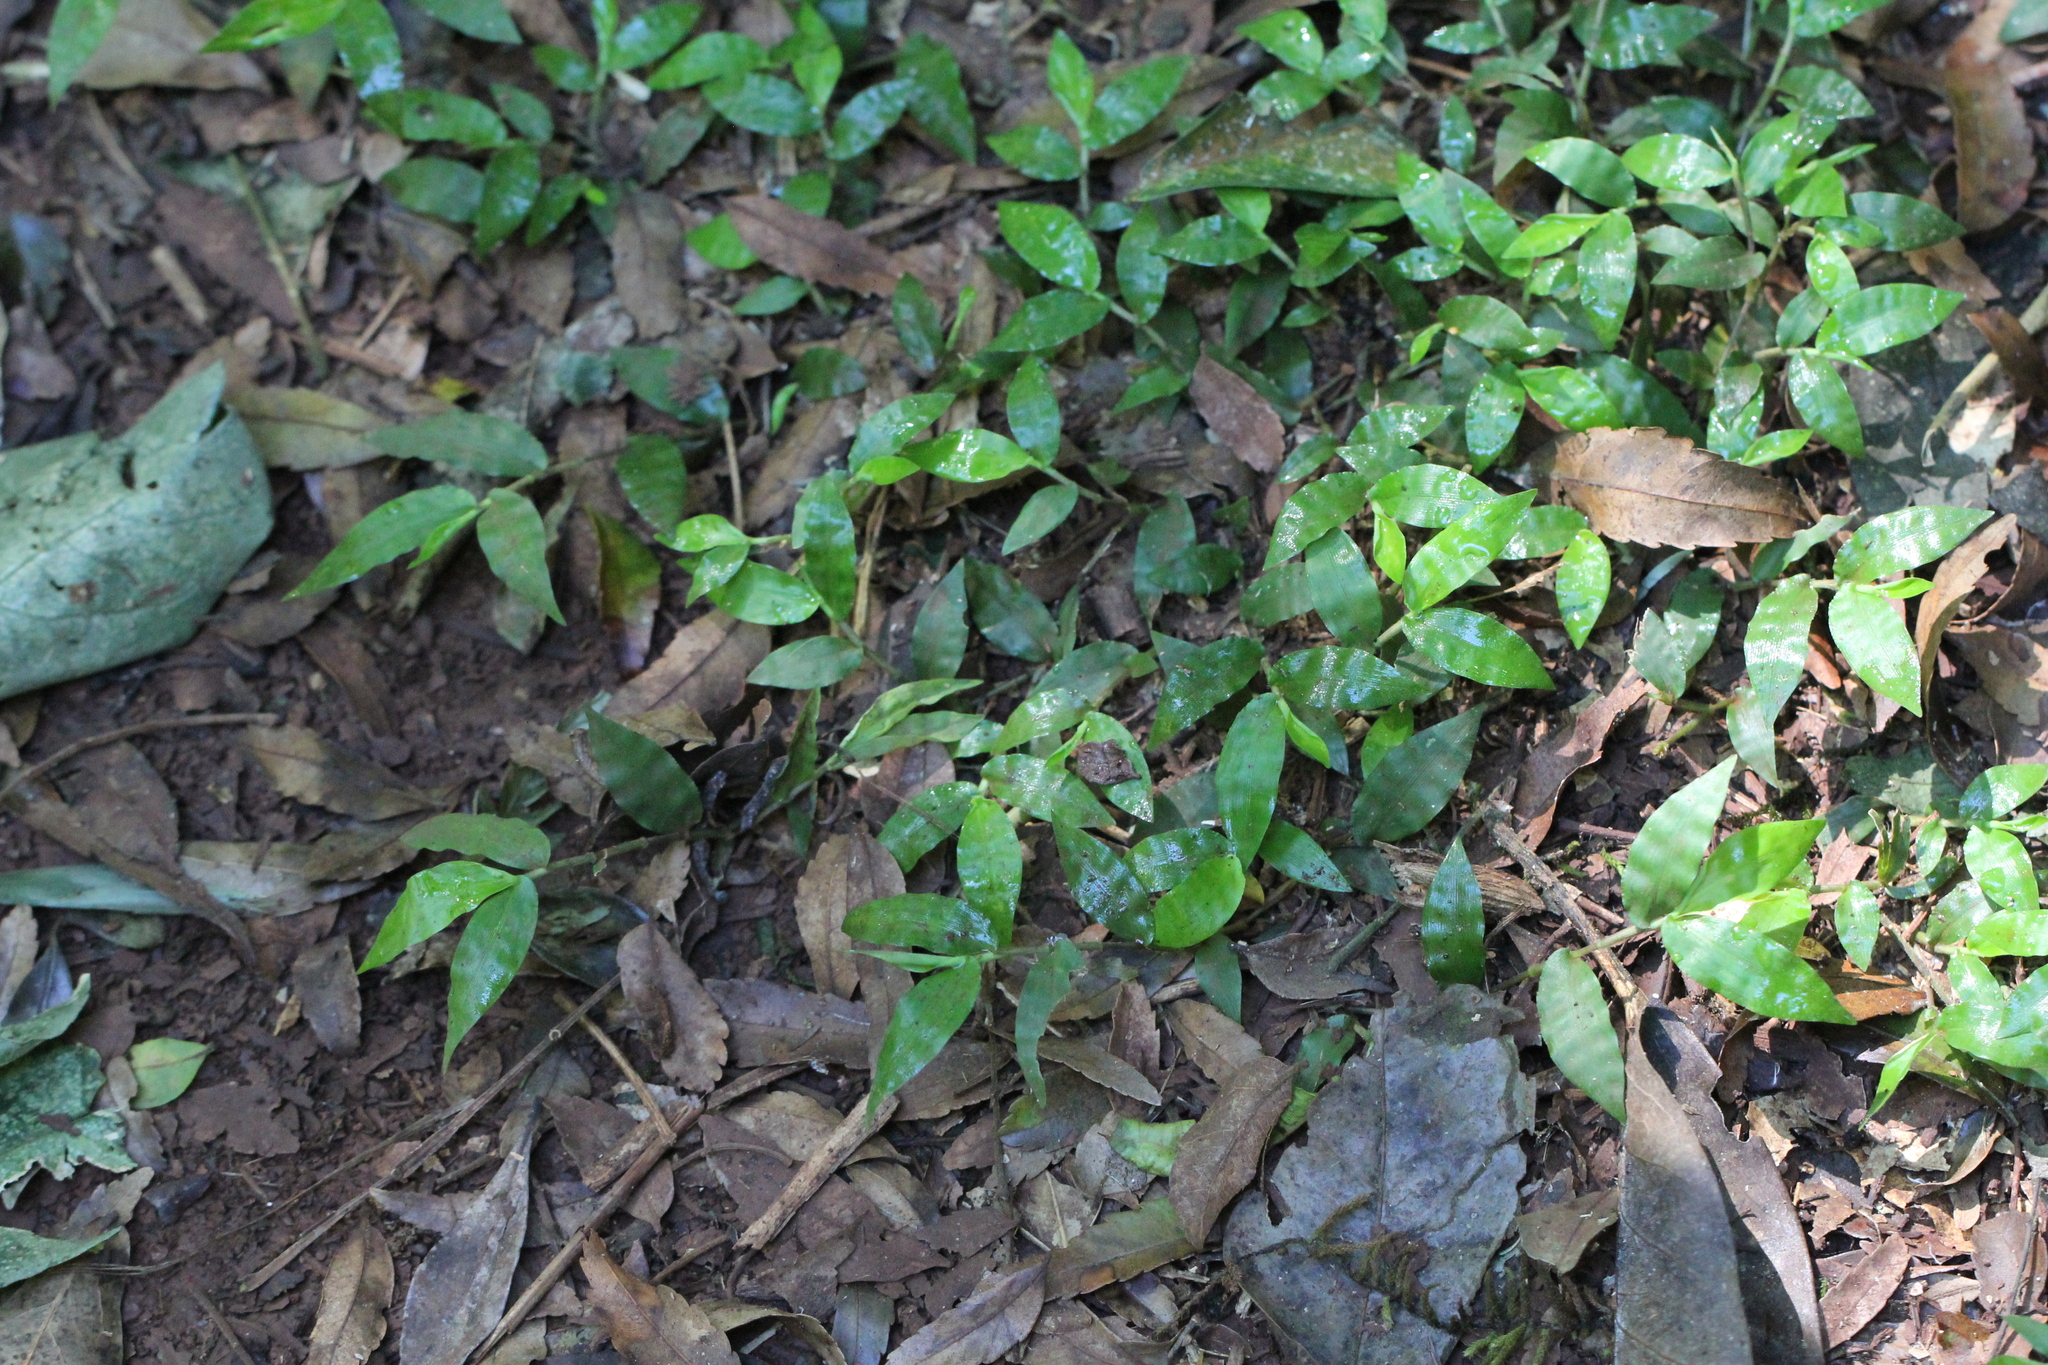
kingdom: Plantae
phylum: Tracheophyta
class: Liliopsida
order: Poales
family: Poaceae
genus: Oplismenus
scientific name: Oplismenus hirtellus
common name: Basketgrass
